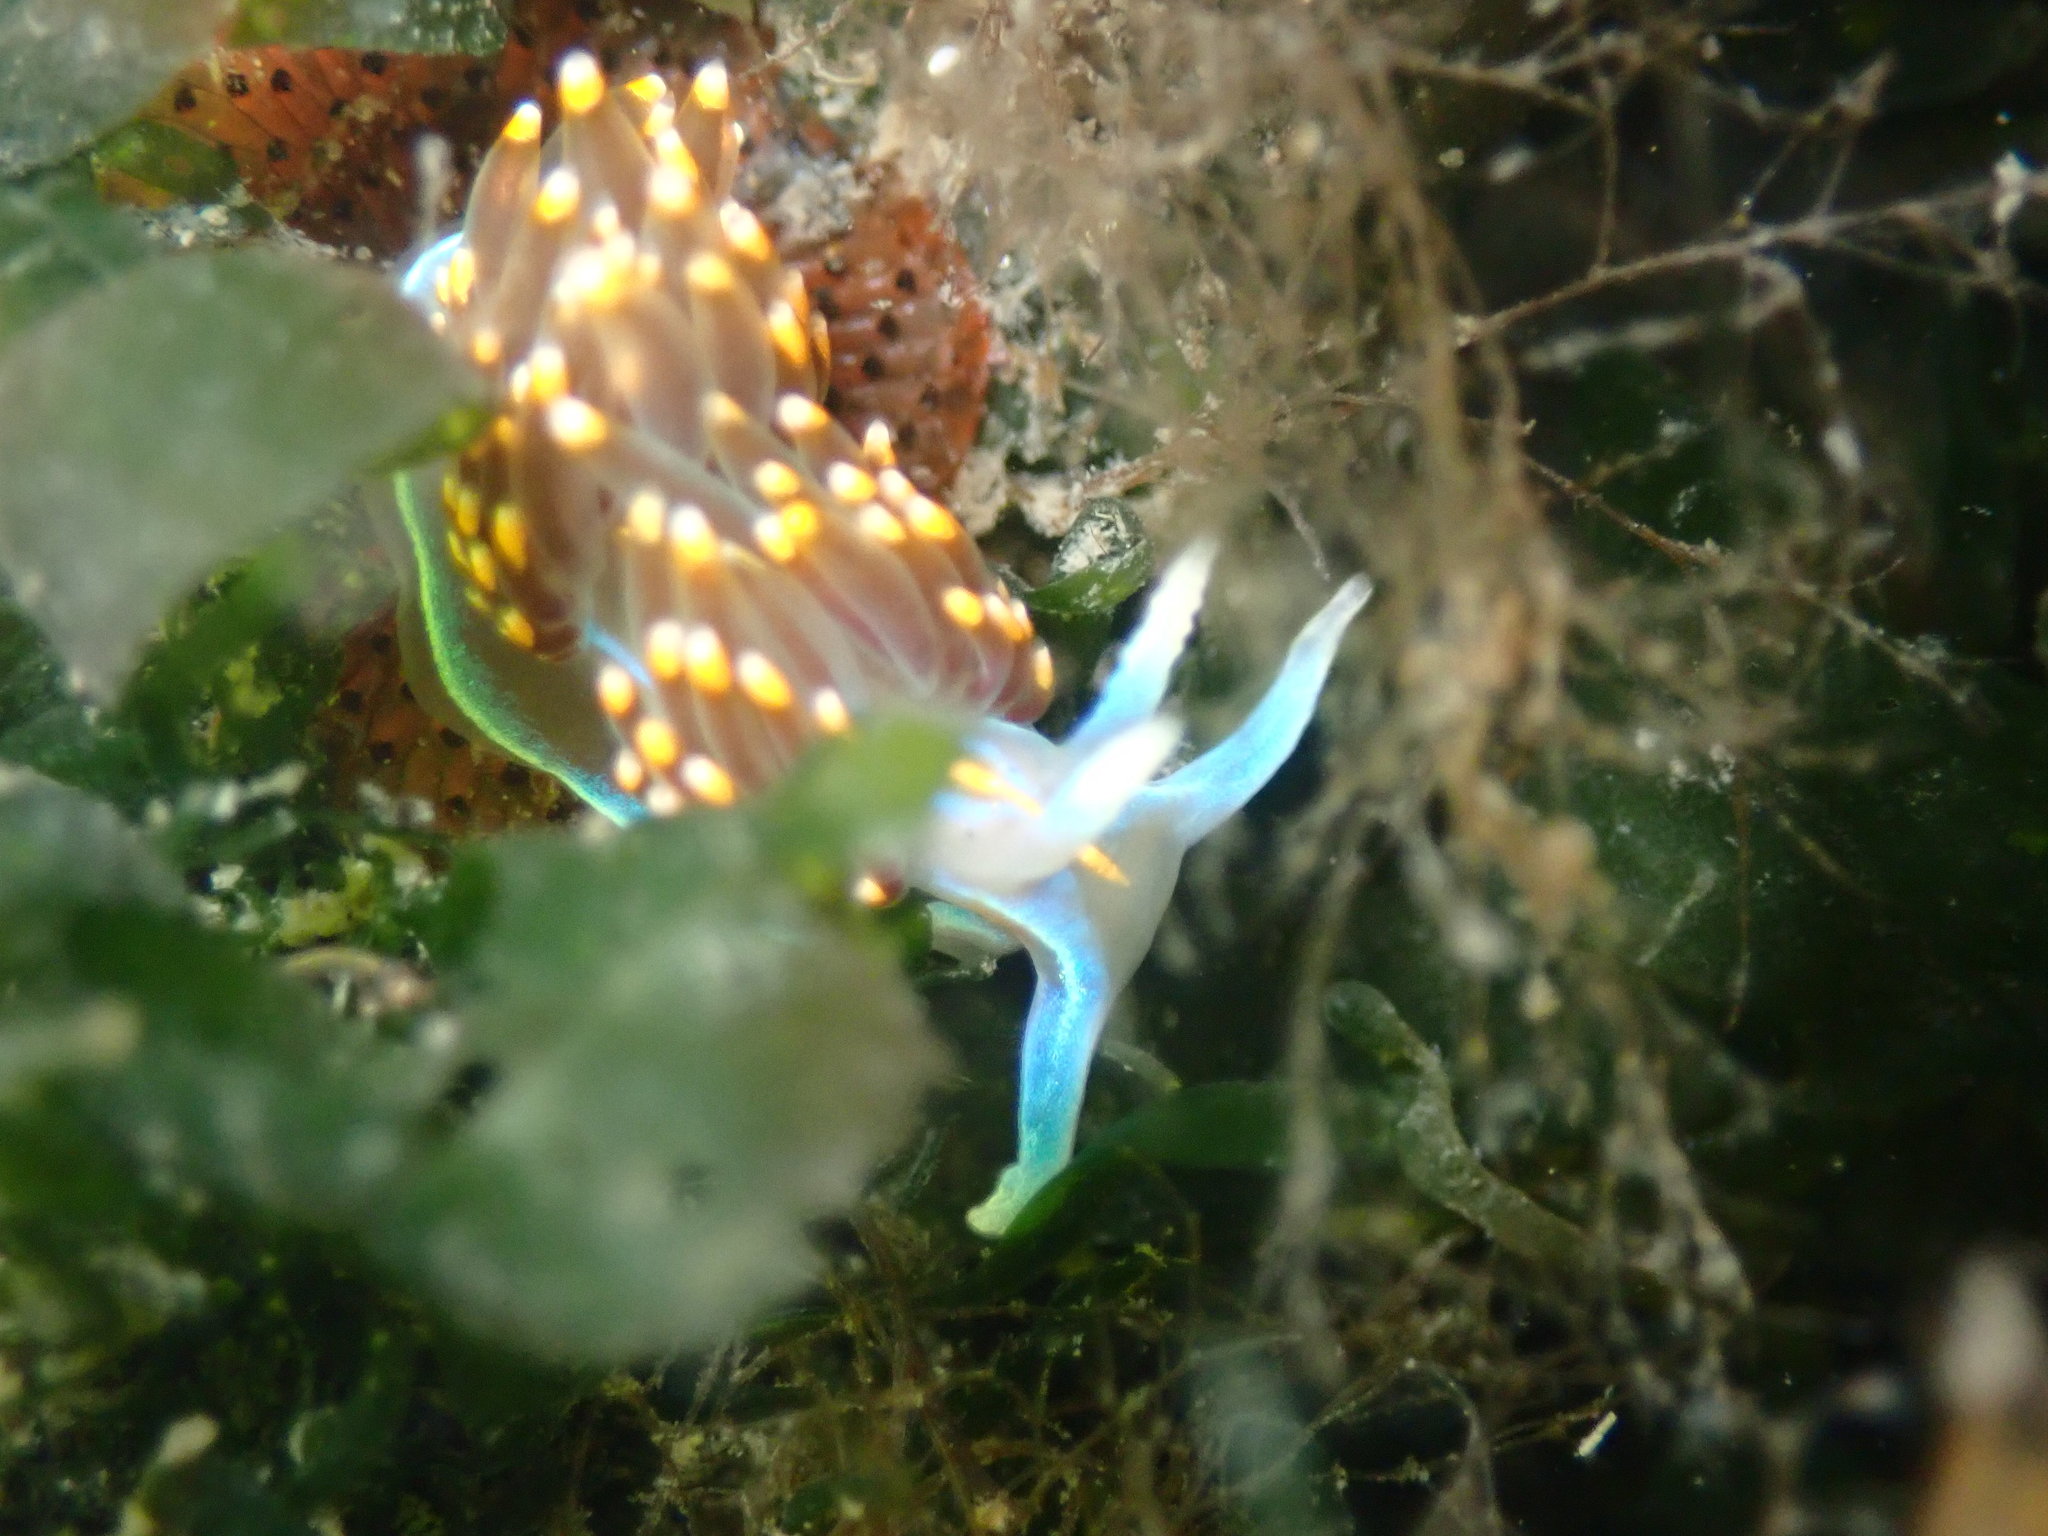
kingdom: Animalia
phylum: Mollusca
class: Gastropoda
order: Nudibranchia
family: Myrrhinidae
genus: Hermissenda
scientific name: Hermissenda opalescens
